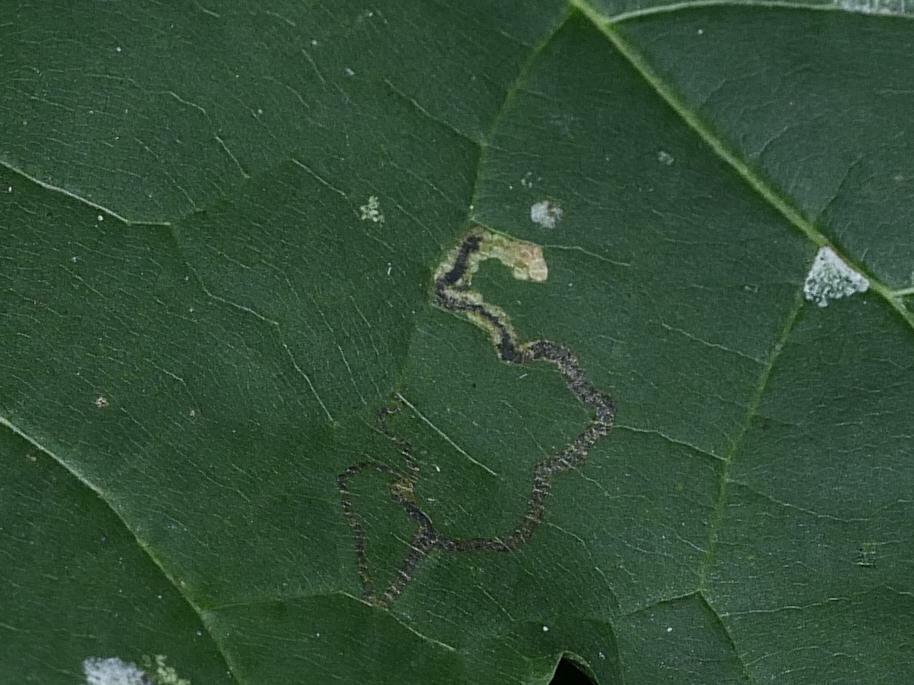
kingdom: Animalia
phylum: Arthropoda
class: Insecta
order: Lepidoptera
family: Nepticulidae
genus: Stigmella
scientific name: Stigmella aceris
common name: Scarce maple pigmy
